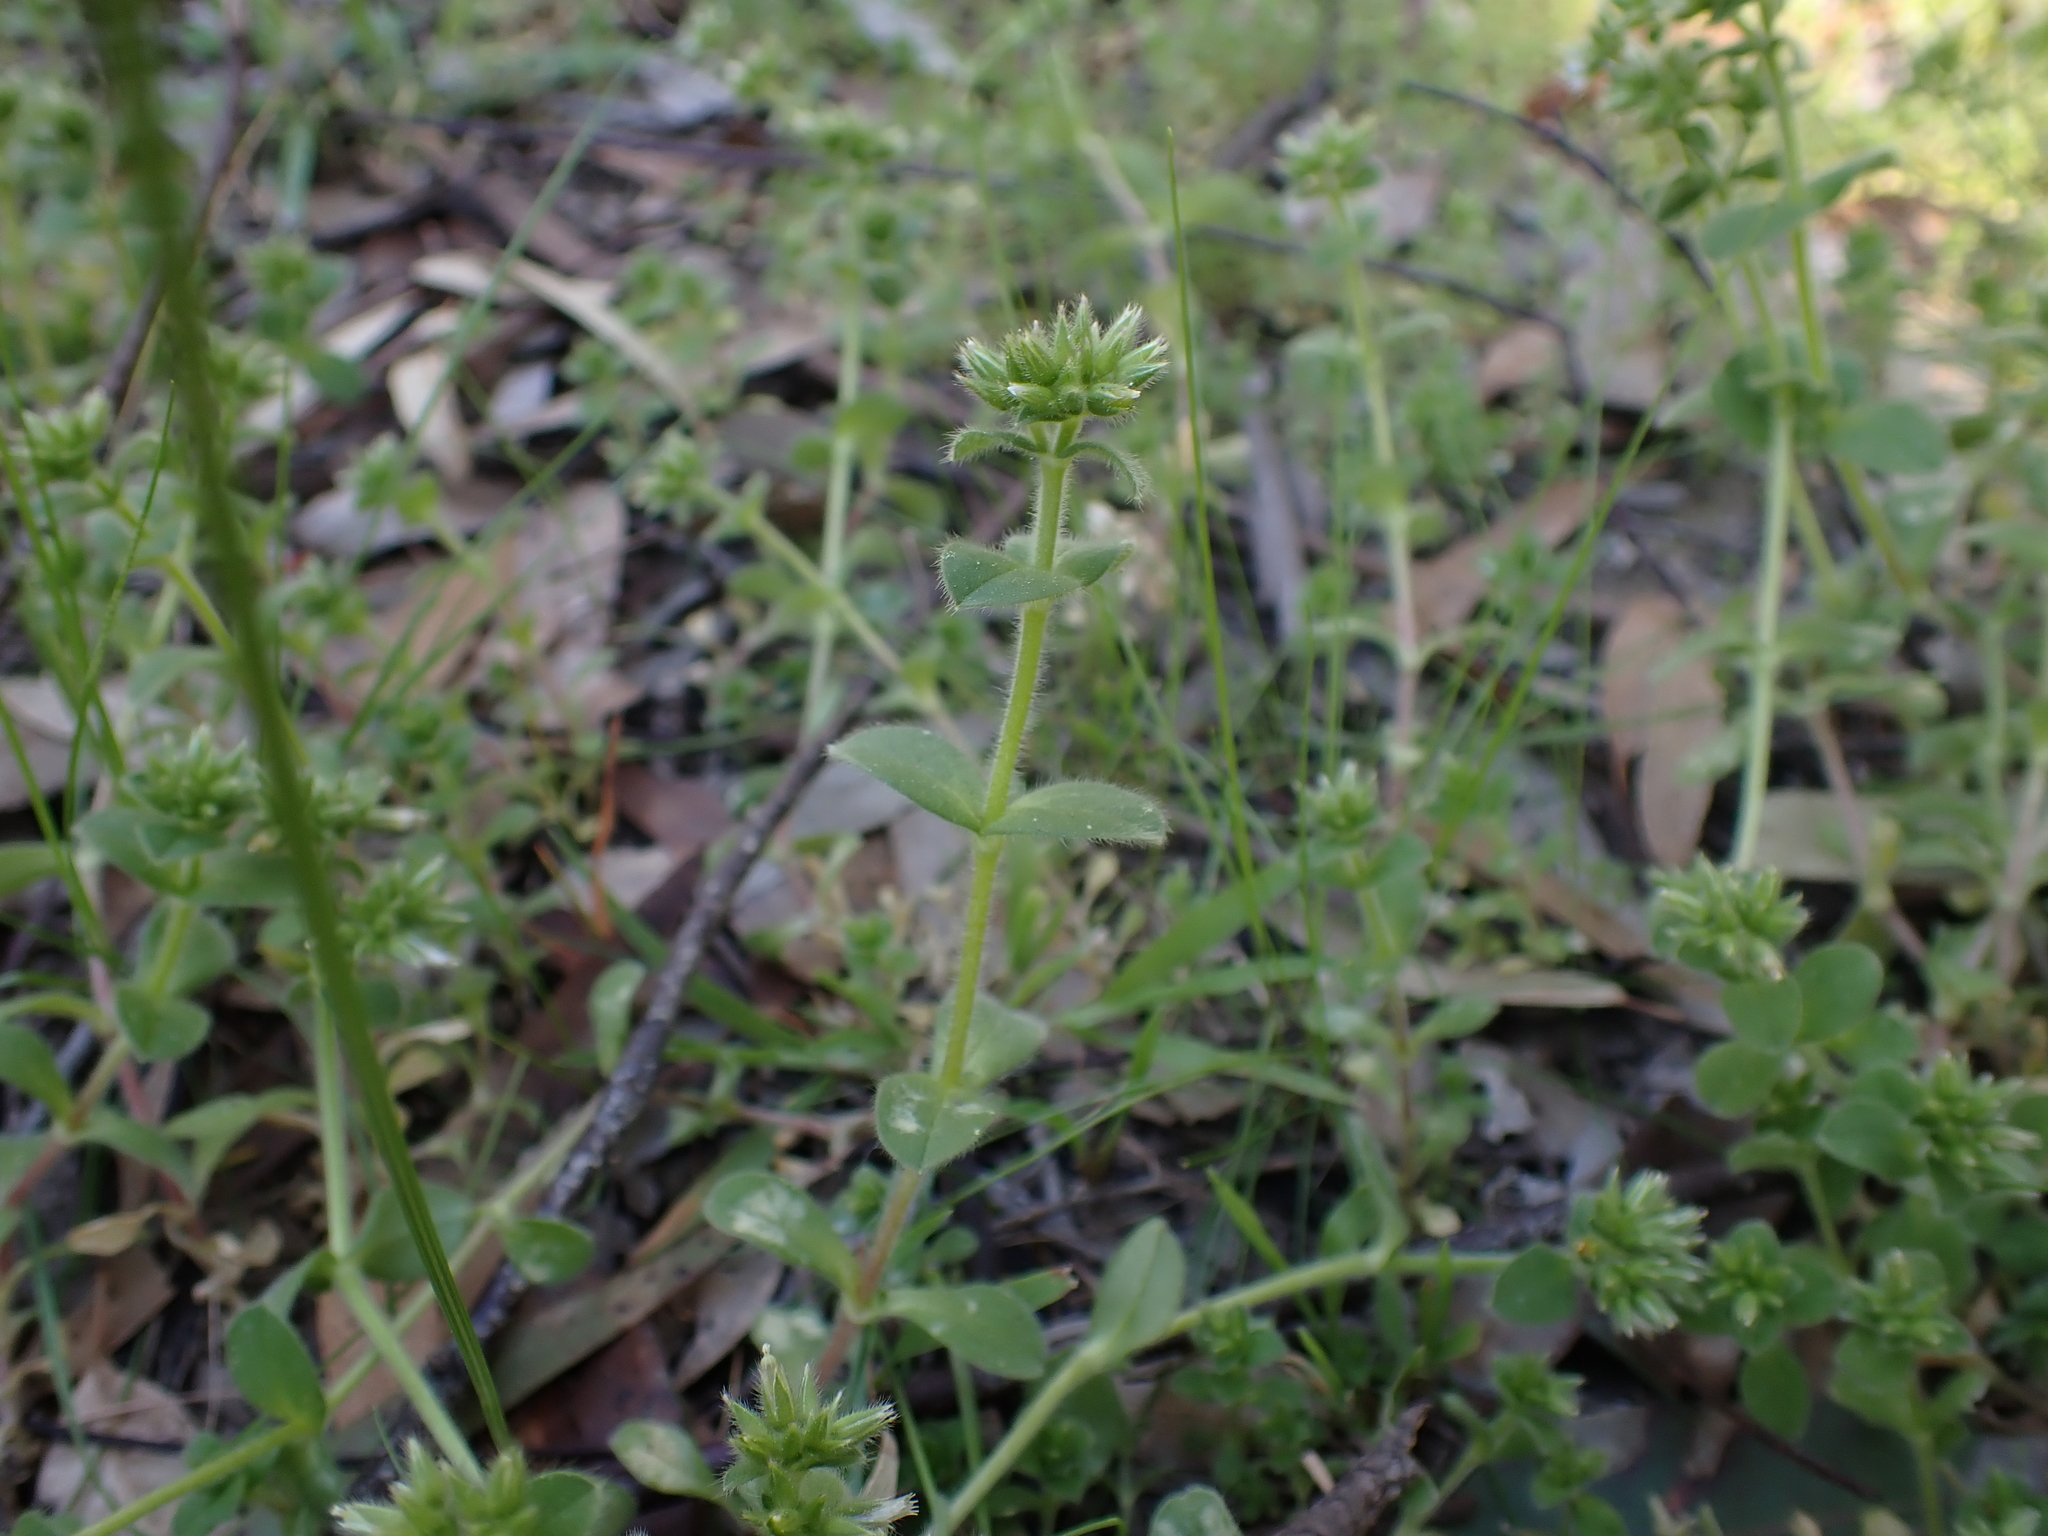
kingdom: Plantae
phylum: Tracheophyta
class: Magnoliopsida
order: Caryophyllales
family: Caryophyllaceae
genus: Cerastium
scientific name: Cerastium glomeratum
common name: Sticky chickweed
